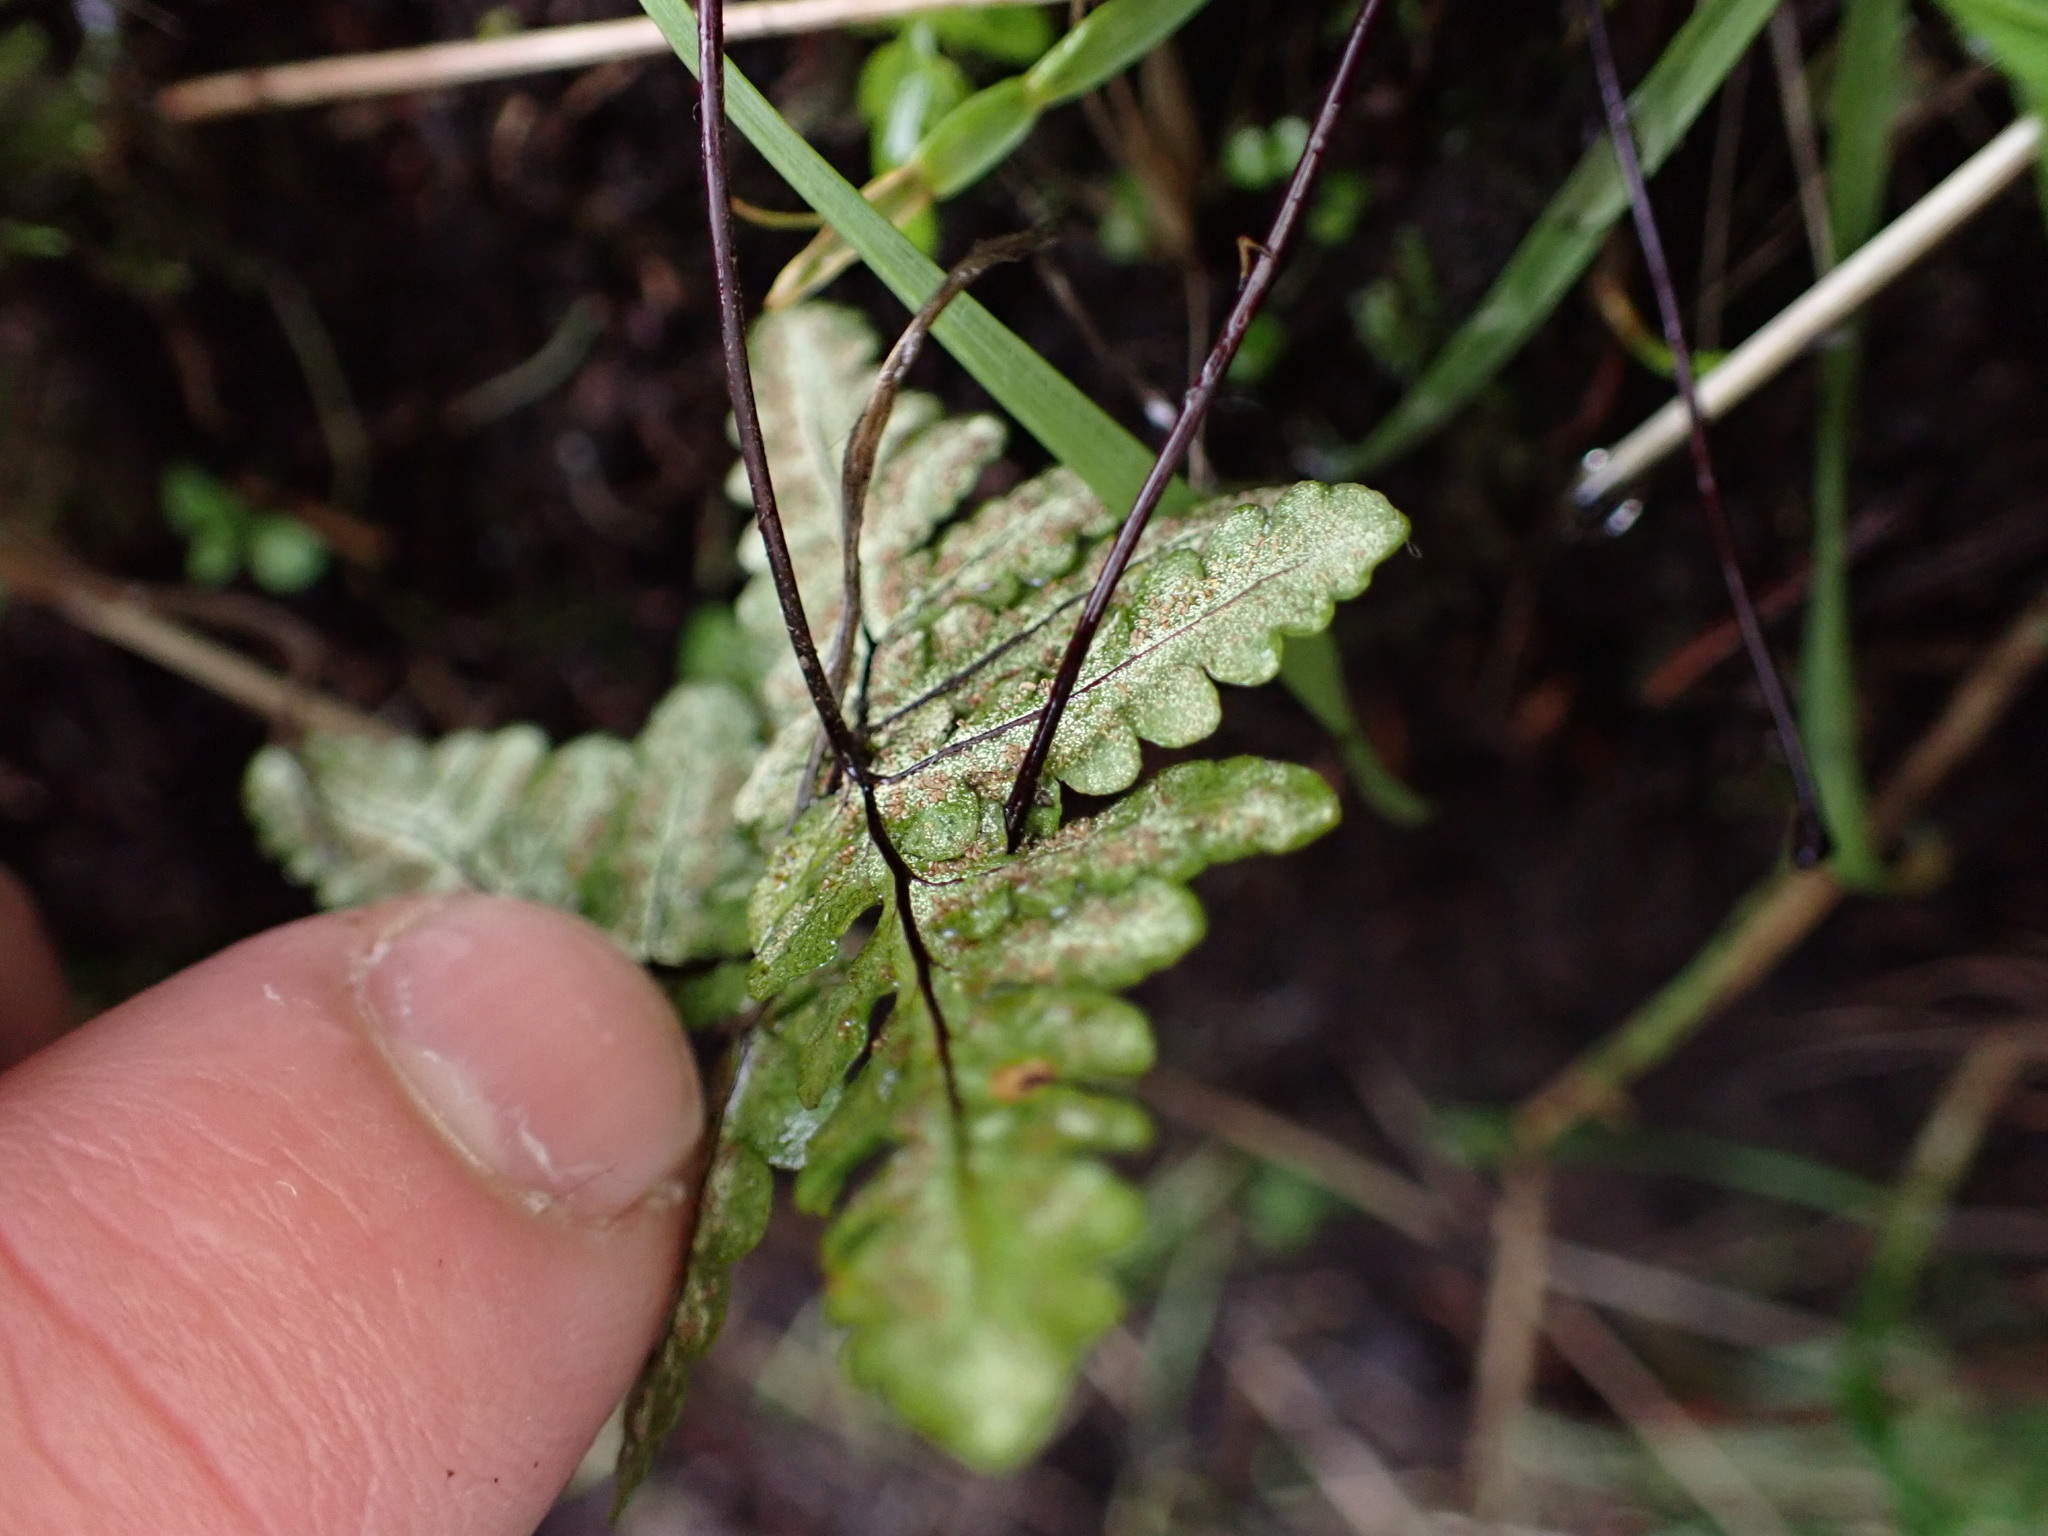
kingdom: Plantae
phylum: Tracheophyta
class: Polypodiopsida
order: Polypodiales
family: Pteridaceae
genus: Pentagramma
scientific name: Pentagramma triangularis
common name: Gold fern
